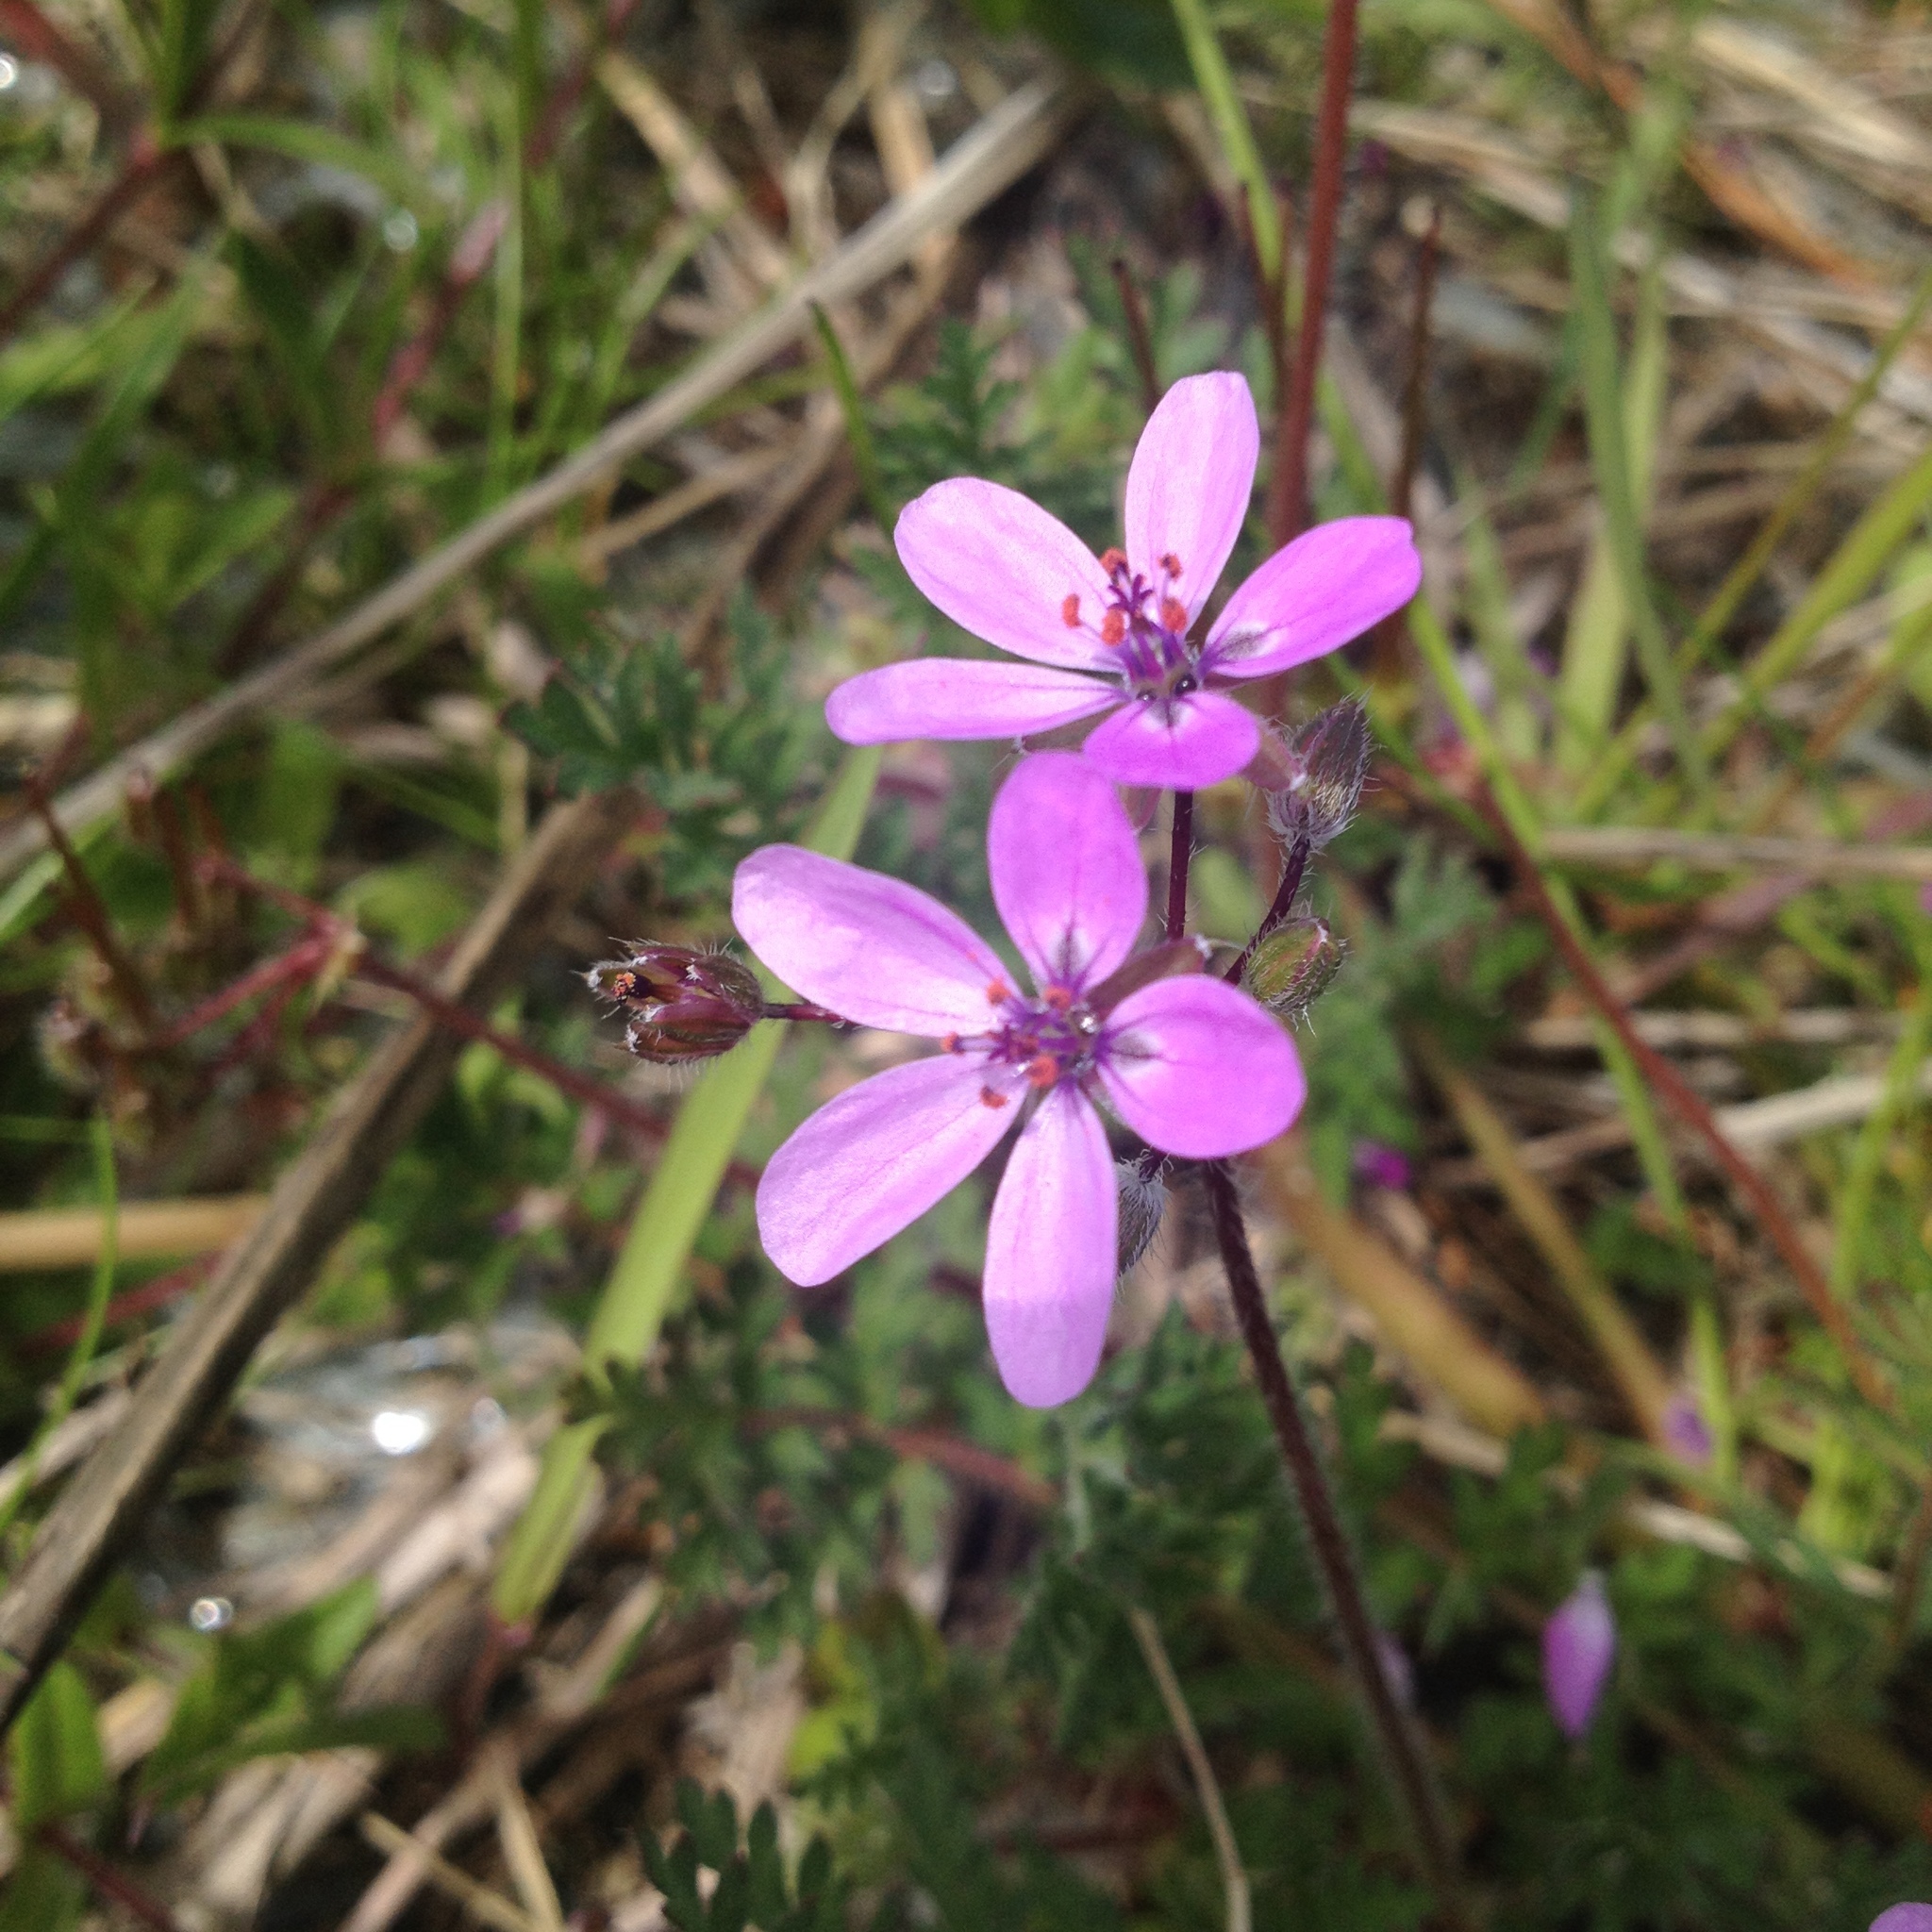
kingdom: Plantae
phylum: Tracheophyta
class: Magnoliopsida
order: Geraniales
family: Geraniaceae
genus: Erodium
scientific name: Erodium cicutarium
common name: Common stork's-bill
